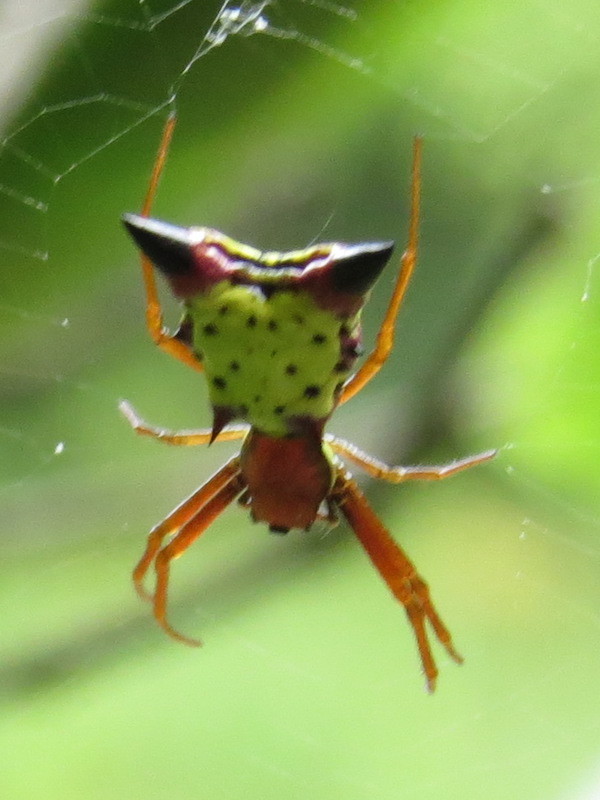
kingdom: Animalia
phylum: Arthropoda
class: Arachnida
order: Araneae
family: Araneidae
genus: Micrathena
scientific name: Micrathena sagittata
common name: Orb weavers
